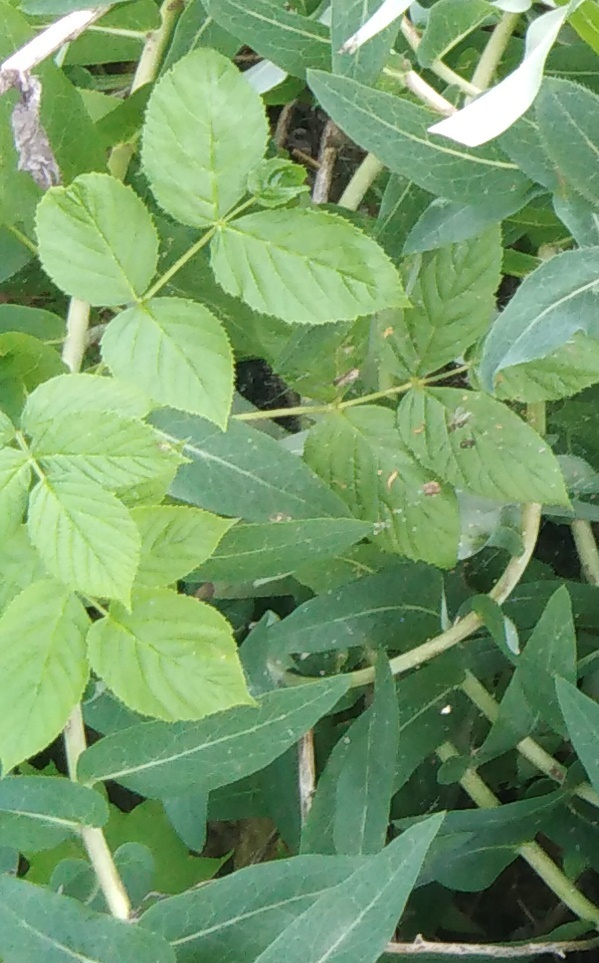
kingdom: Plantae
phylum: Tracheophyta
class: Magnoliopsida
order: Rosales
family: Rosaceae
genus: Rubus
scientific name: Rubus idaeus
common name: Raspberry
